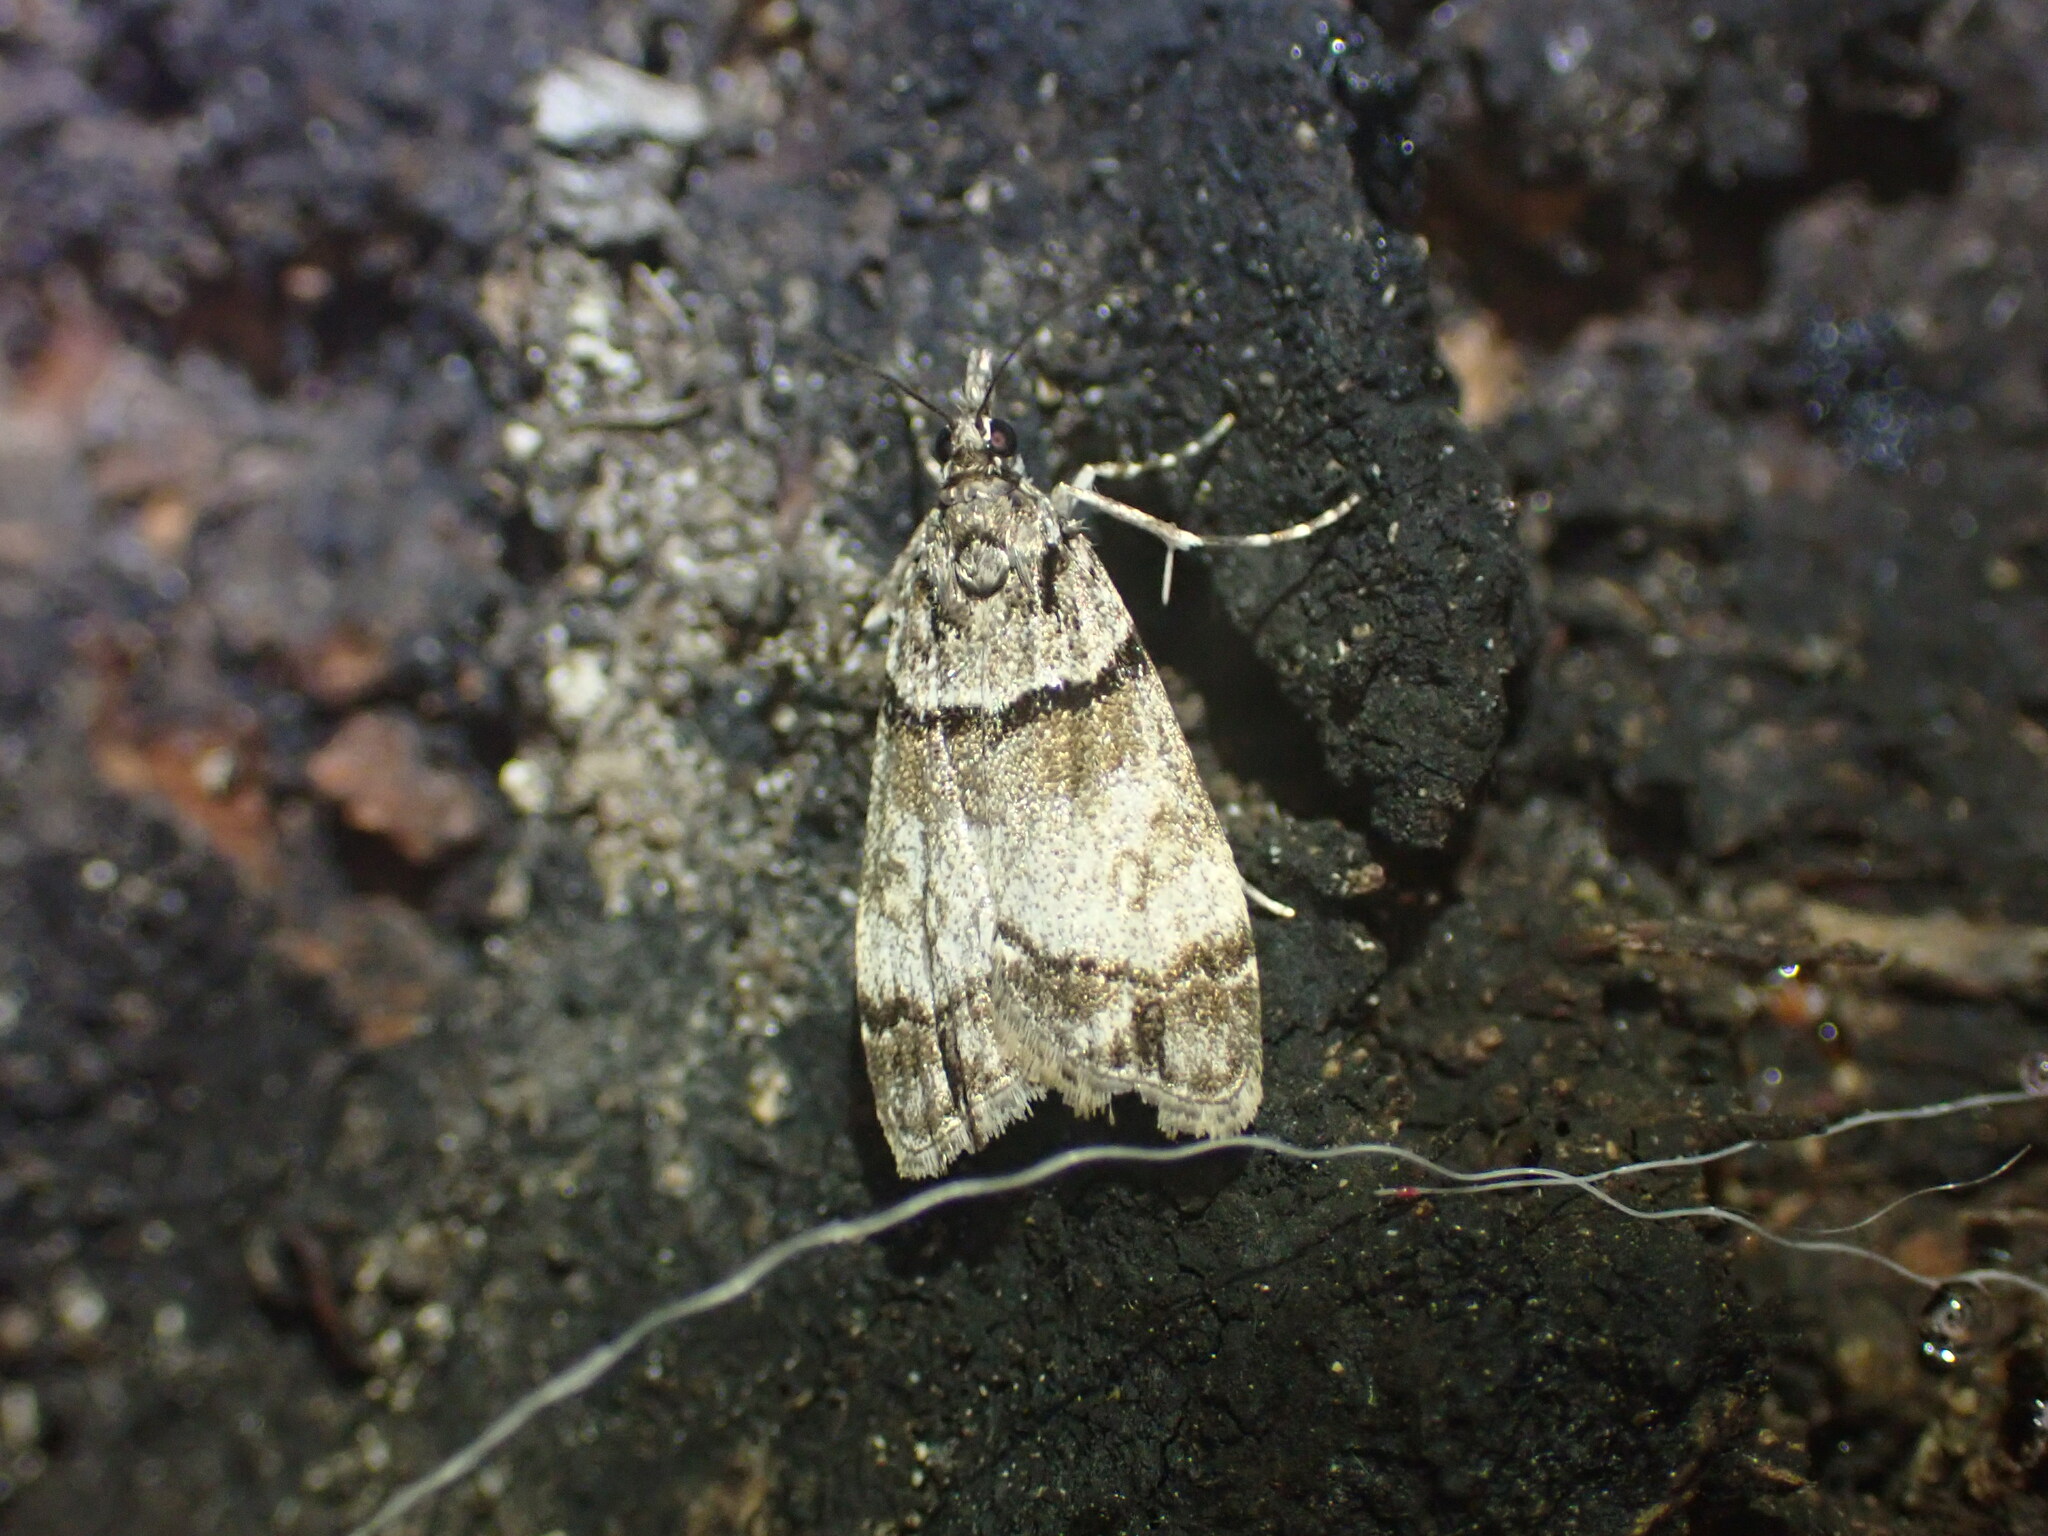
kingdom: Animalia
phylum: Arthropoda
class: Insecta
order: Lepidoptera
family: Crambidae
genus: Eudonia
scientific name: Eudonia choristis
